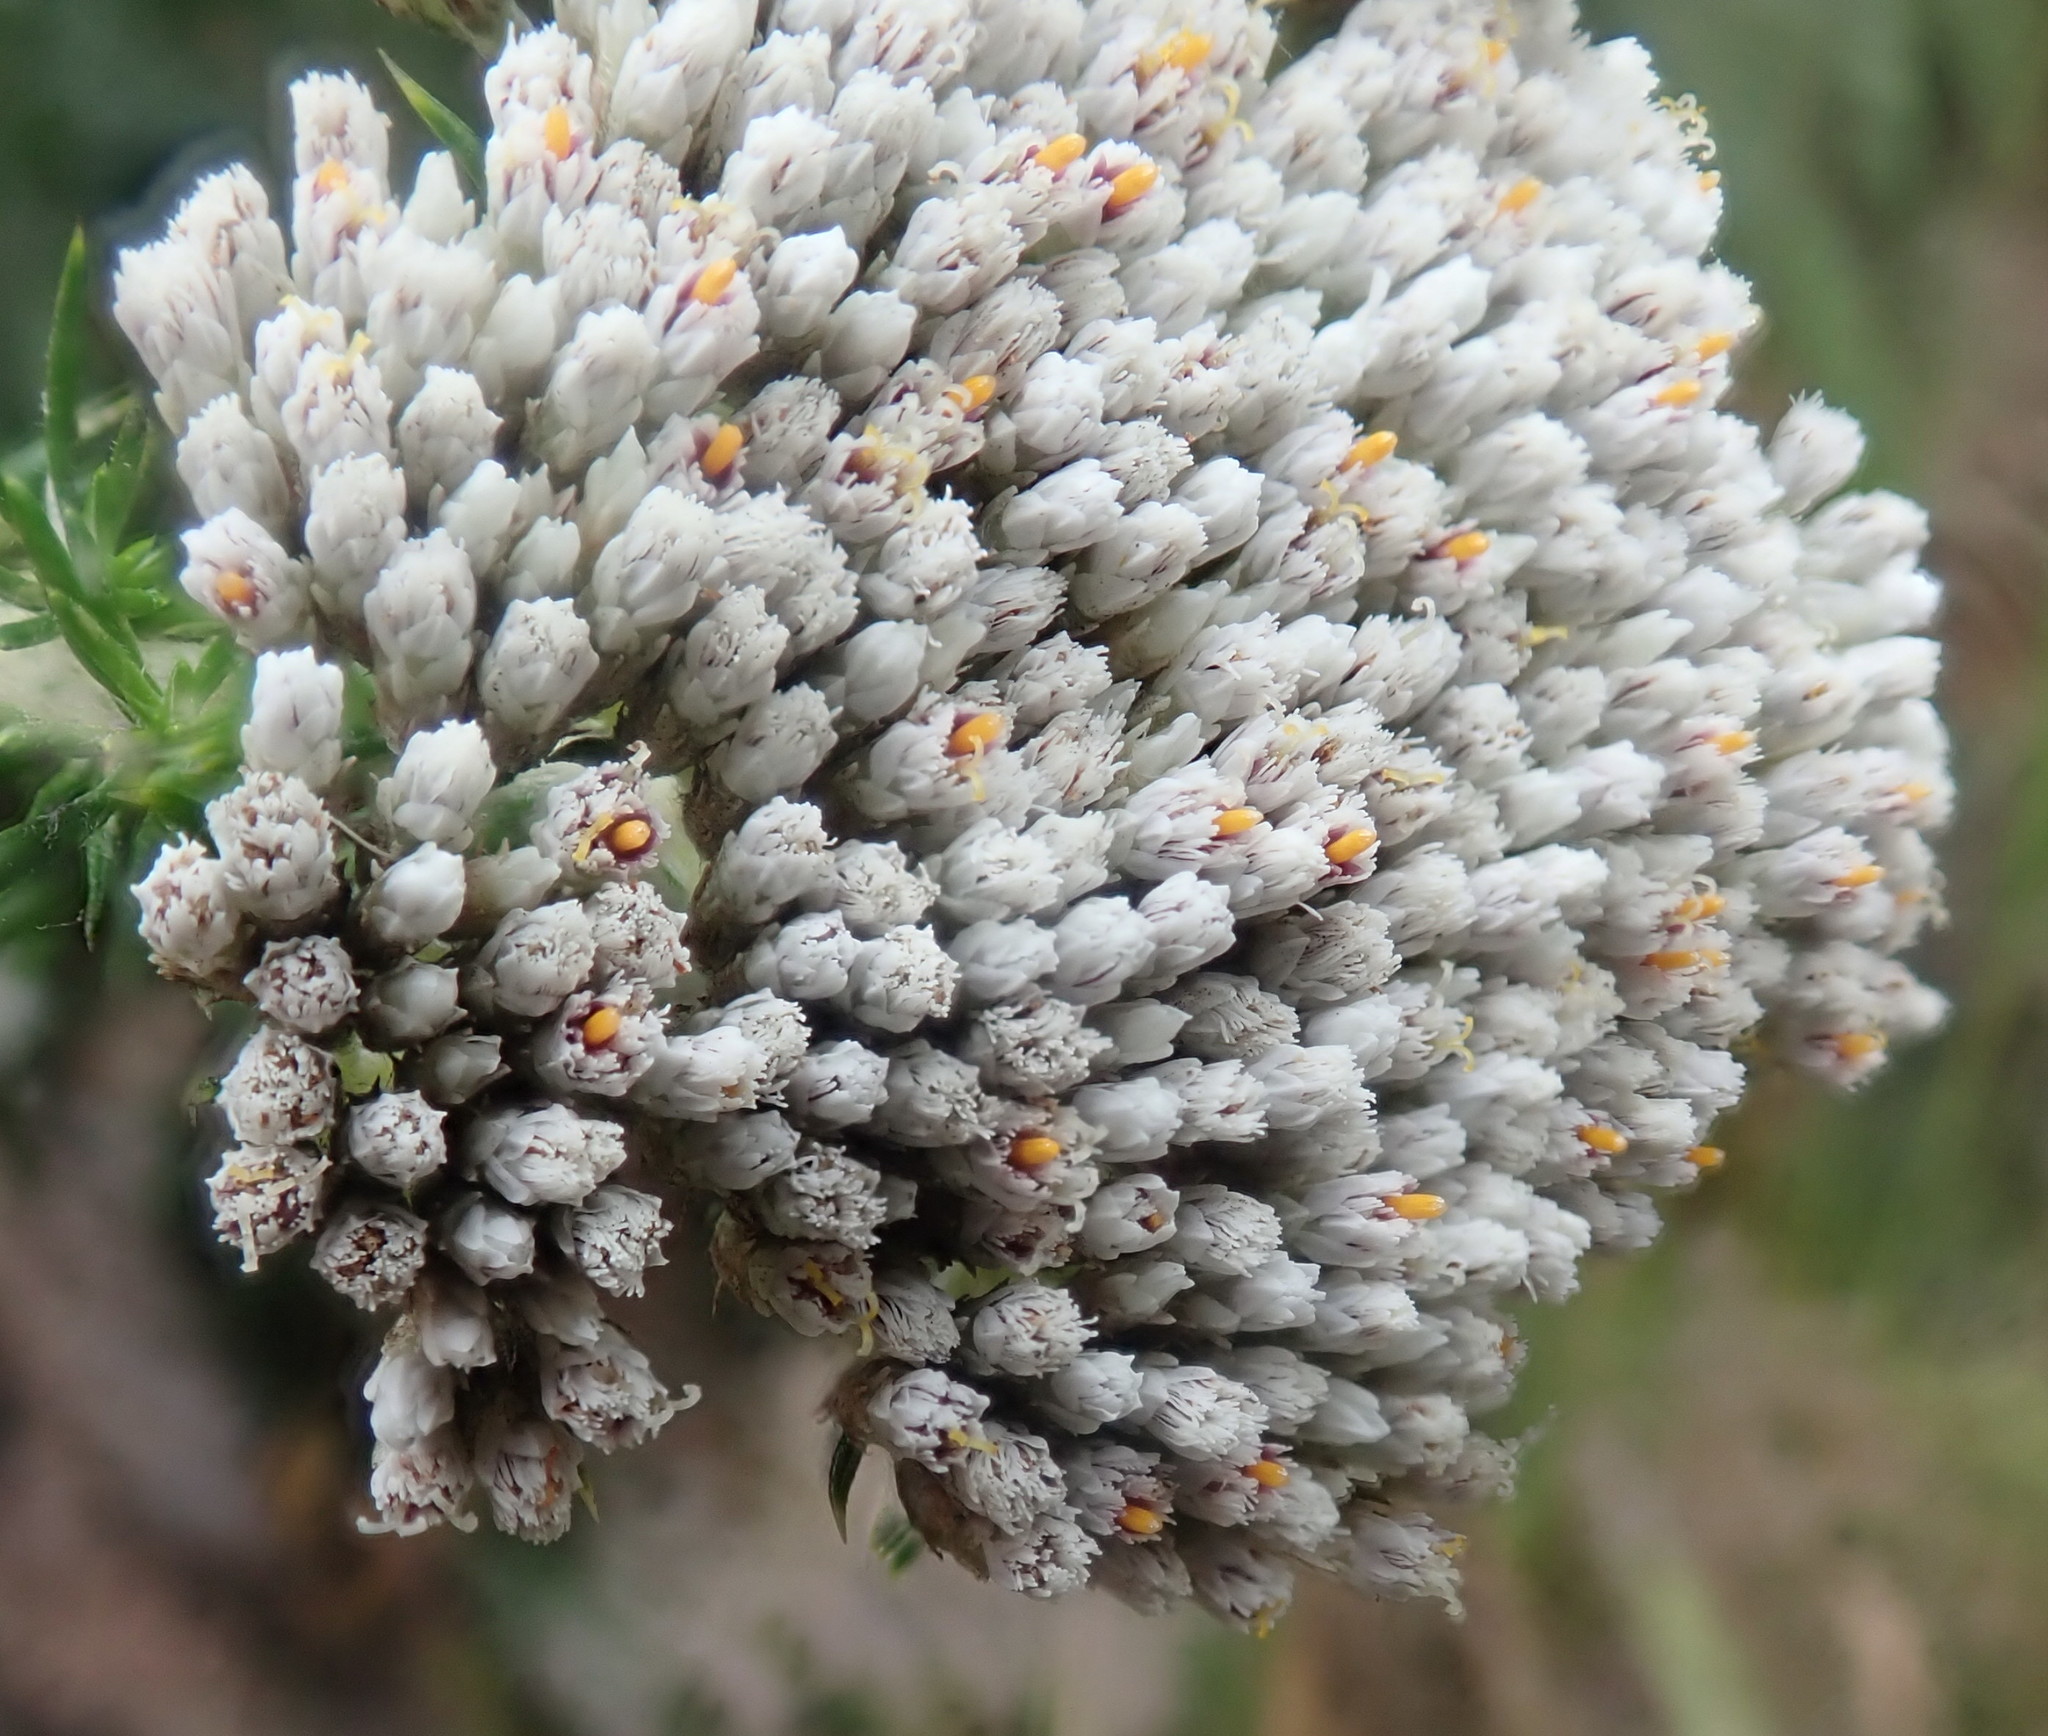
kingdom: Plantae
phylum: Tracheophyta
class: Magnoliopsida
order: Asterales
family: Asteraceae
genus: Metalasia
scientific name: Metalasia trivialis
